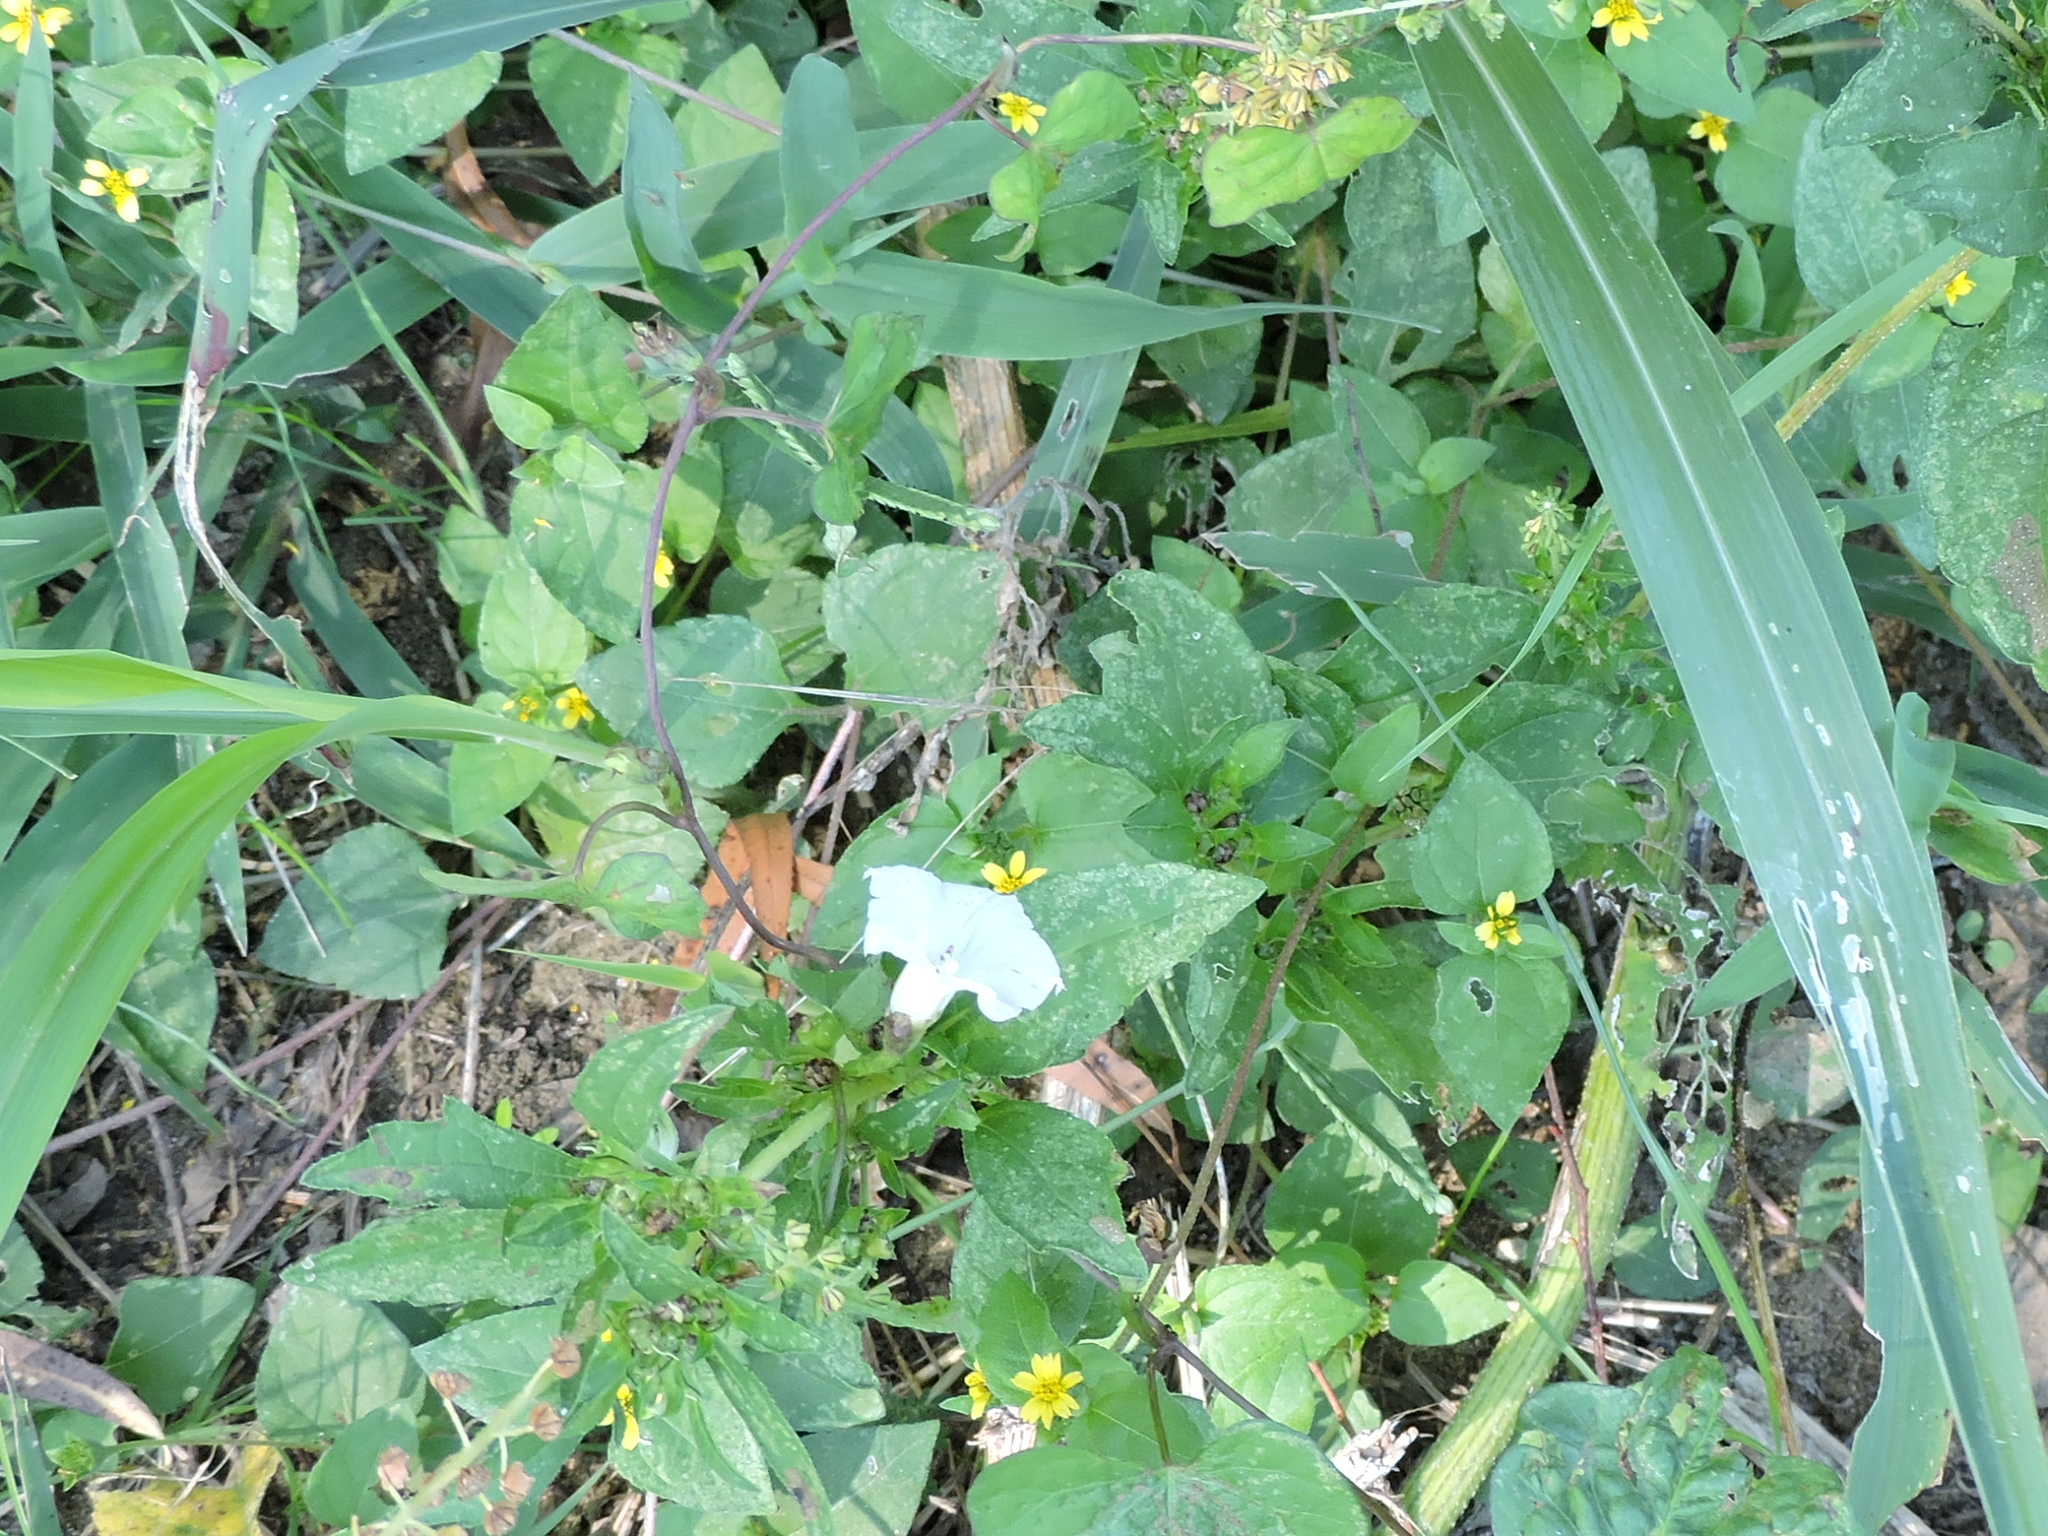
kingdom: Plantae
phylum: Tracheophyta
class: Magnoliopsida
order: Solanales
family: Convolvulaceae
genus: Ipomoea
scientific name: Ipomoea lacunosa
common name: White morning-glory
